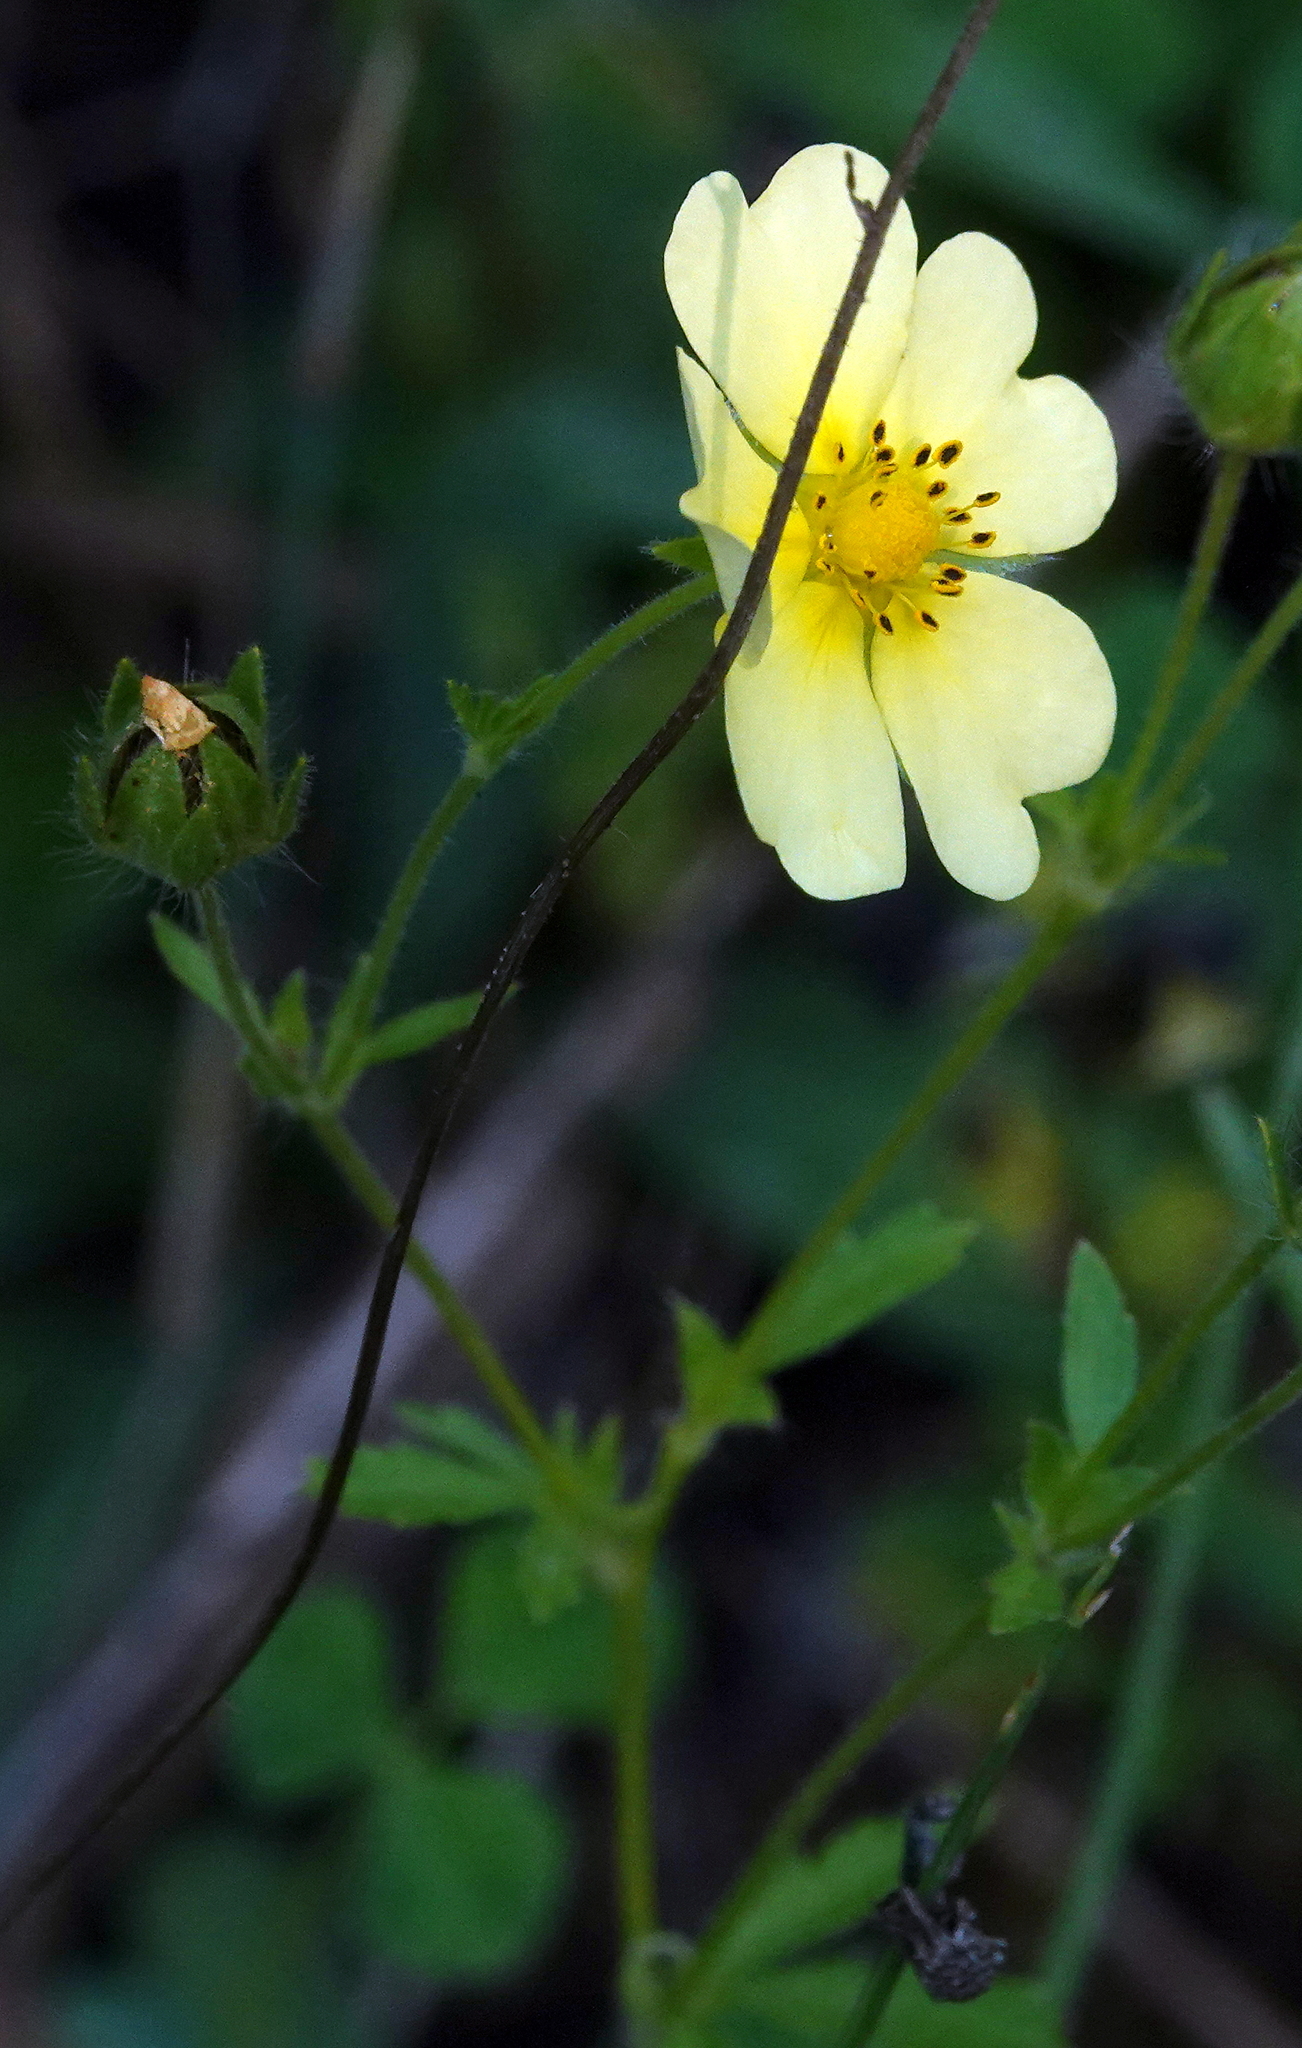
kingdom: Plantae
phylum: Tracheophyta
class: Magnoliopsida
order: Rosales
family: Rosaceae
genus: Potentilla
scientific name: Potentilla recta
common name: Sulphur cinquefoil
